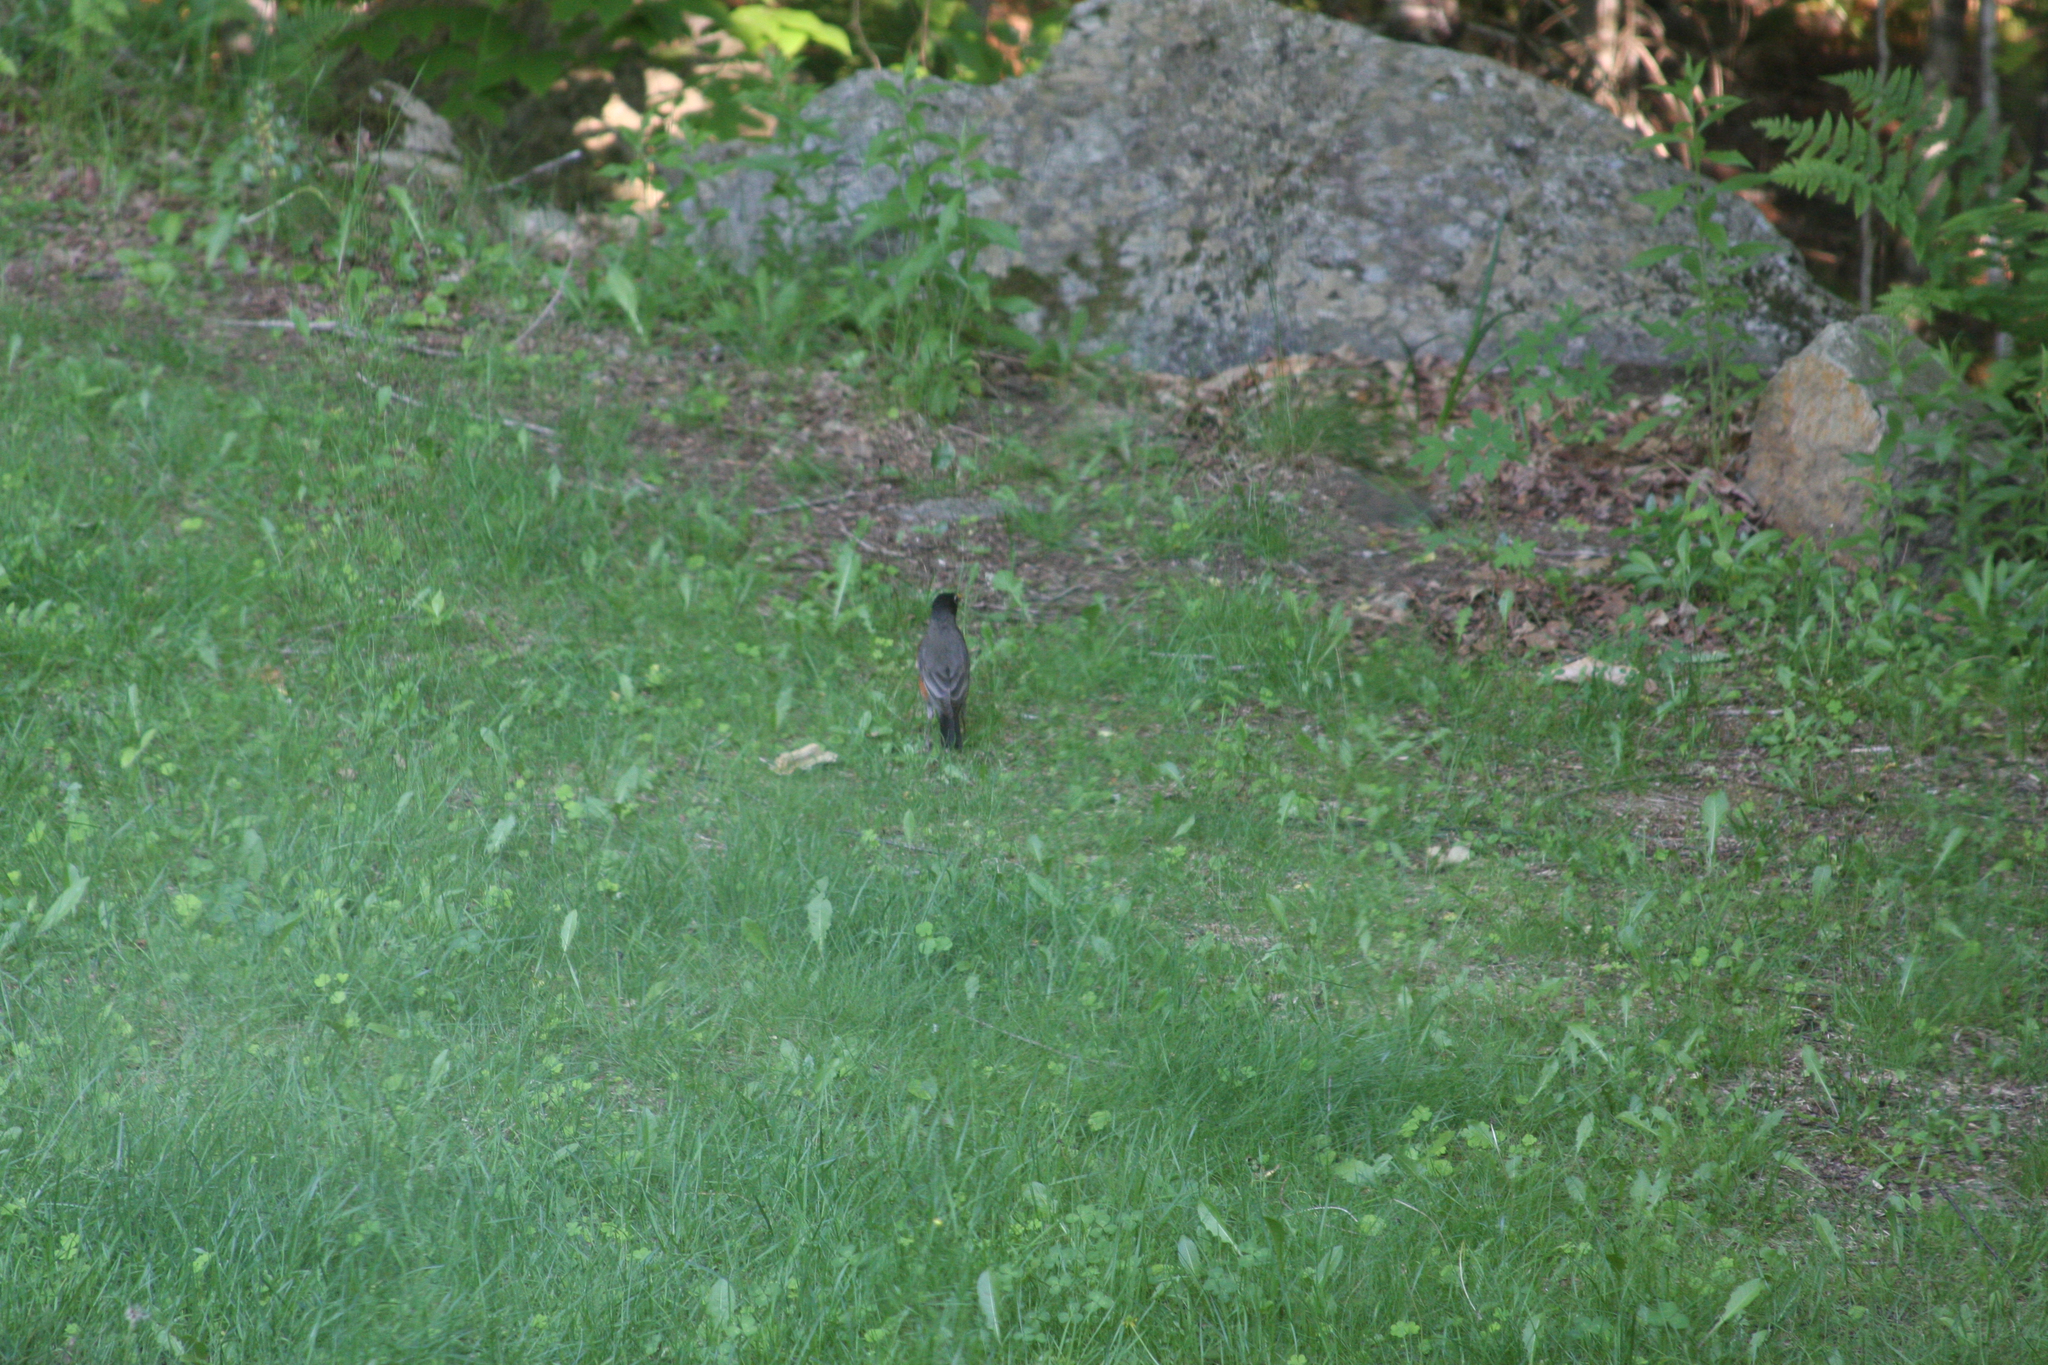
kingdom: Animalia
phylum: Chordata
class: Aves
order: Passeriformes
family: Turdidae
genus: Turdus
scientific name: Turdus migratorius
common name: American robin
